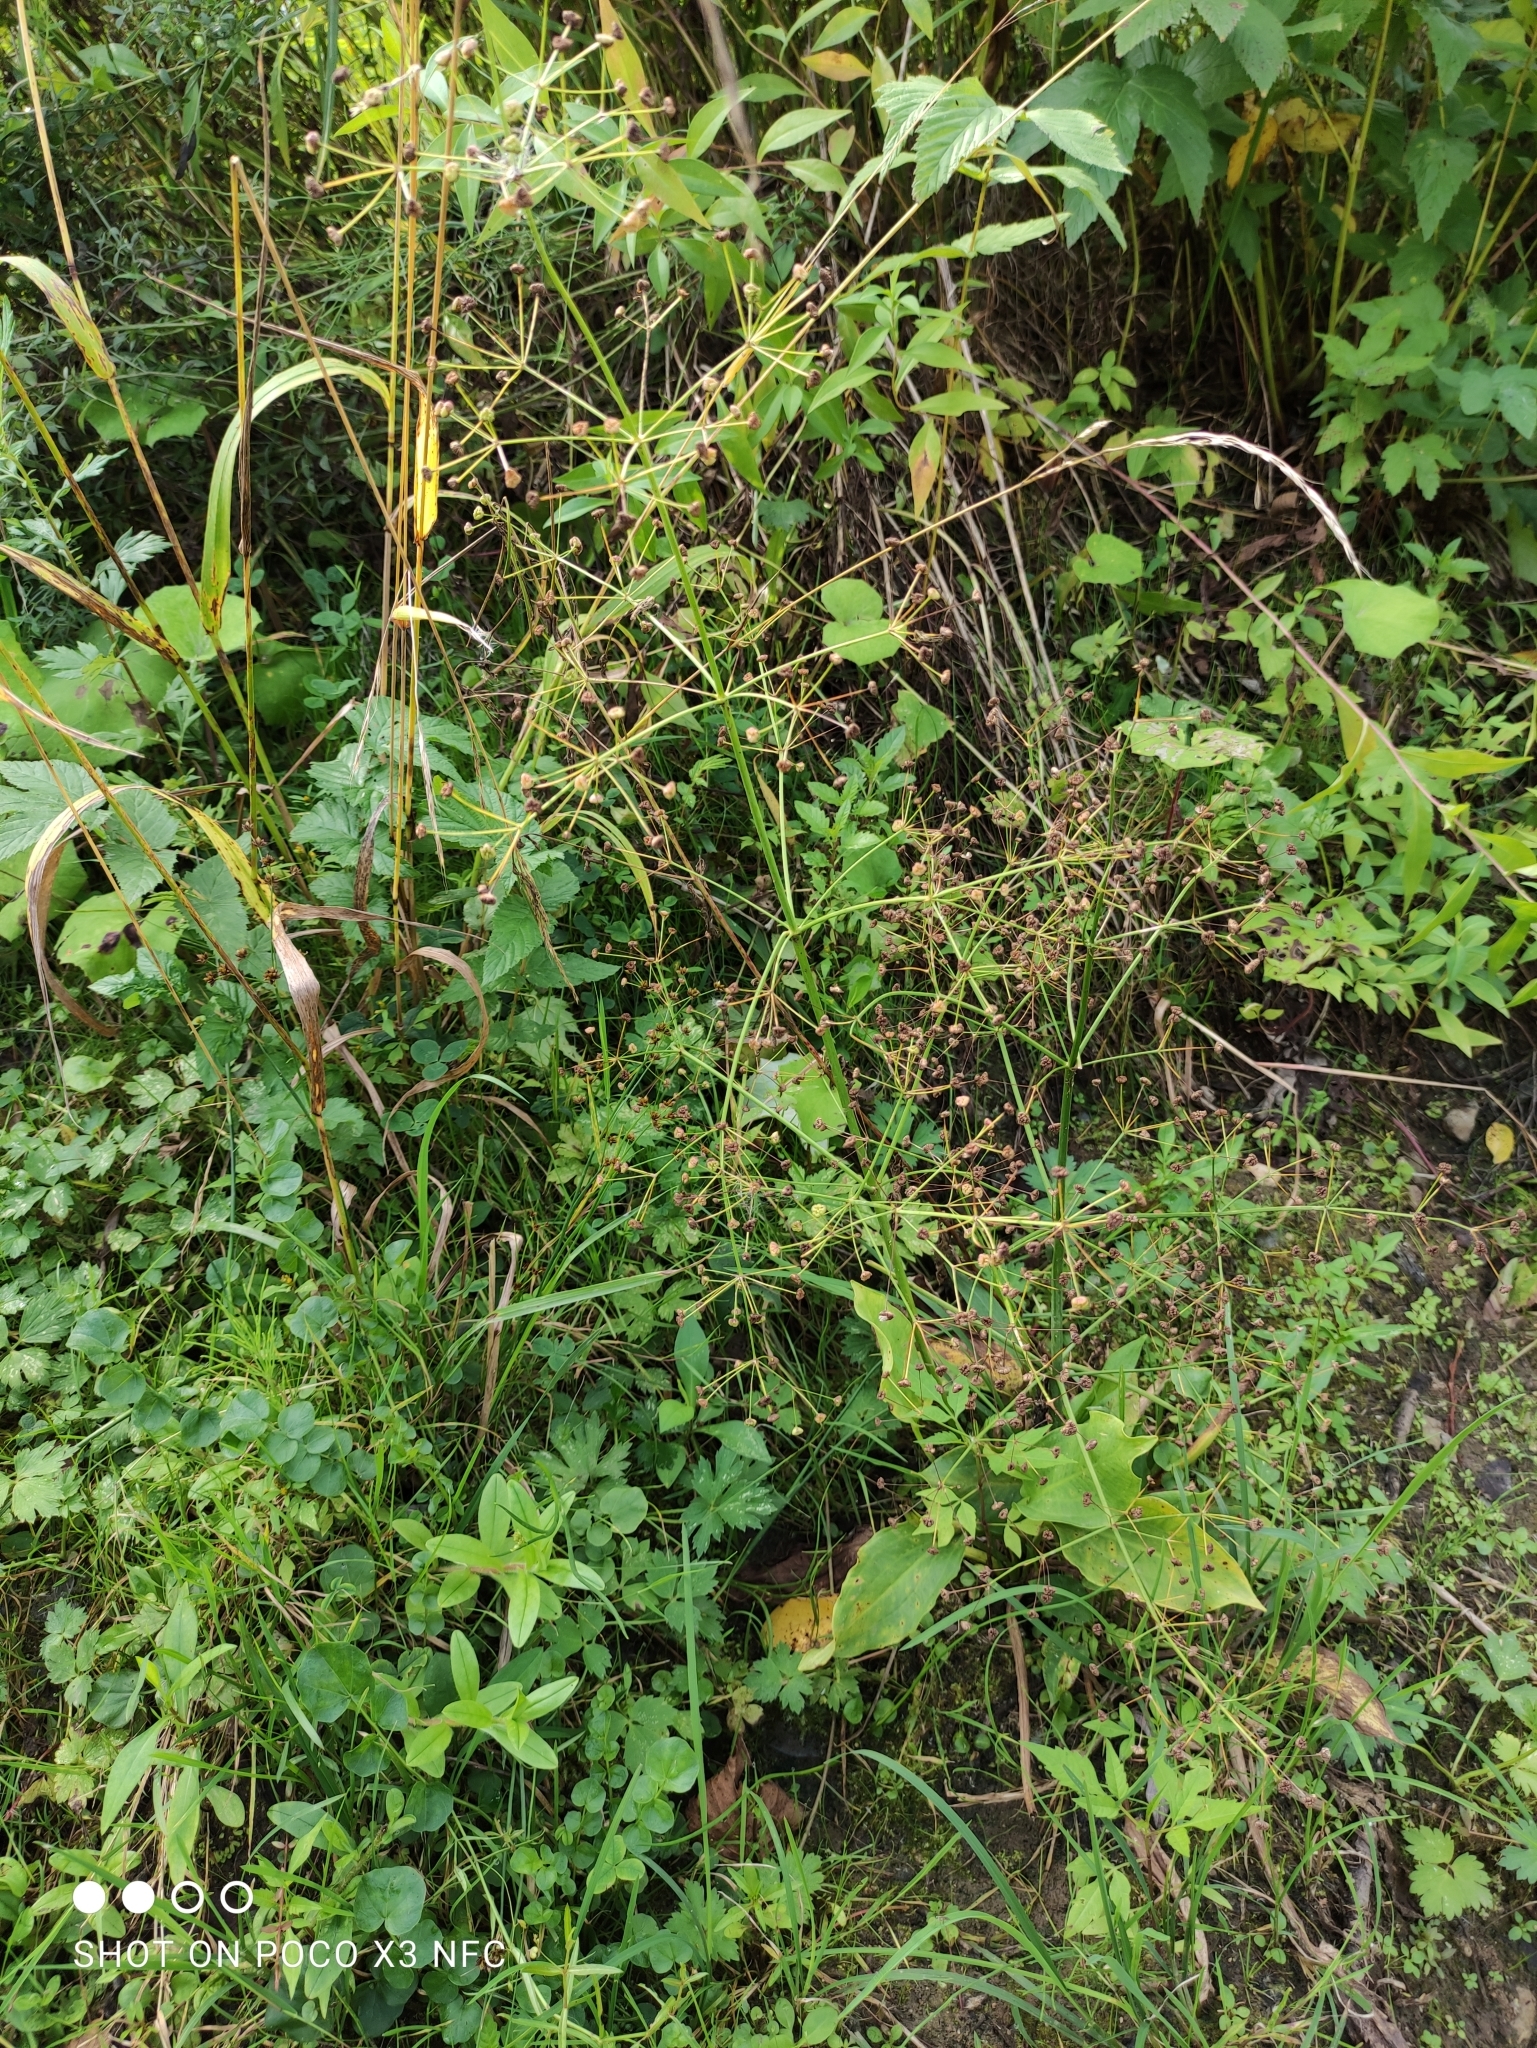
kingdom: Plantae
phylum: Tracheophyta
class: Liliopsida
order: Alismatales
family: Alismataceae
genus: Alisma
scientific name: Alisma plantago-aquatica
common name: Water-plantain
